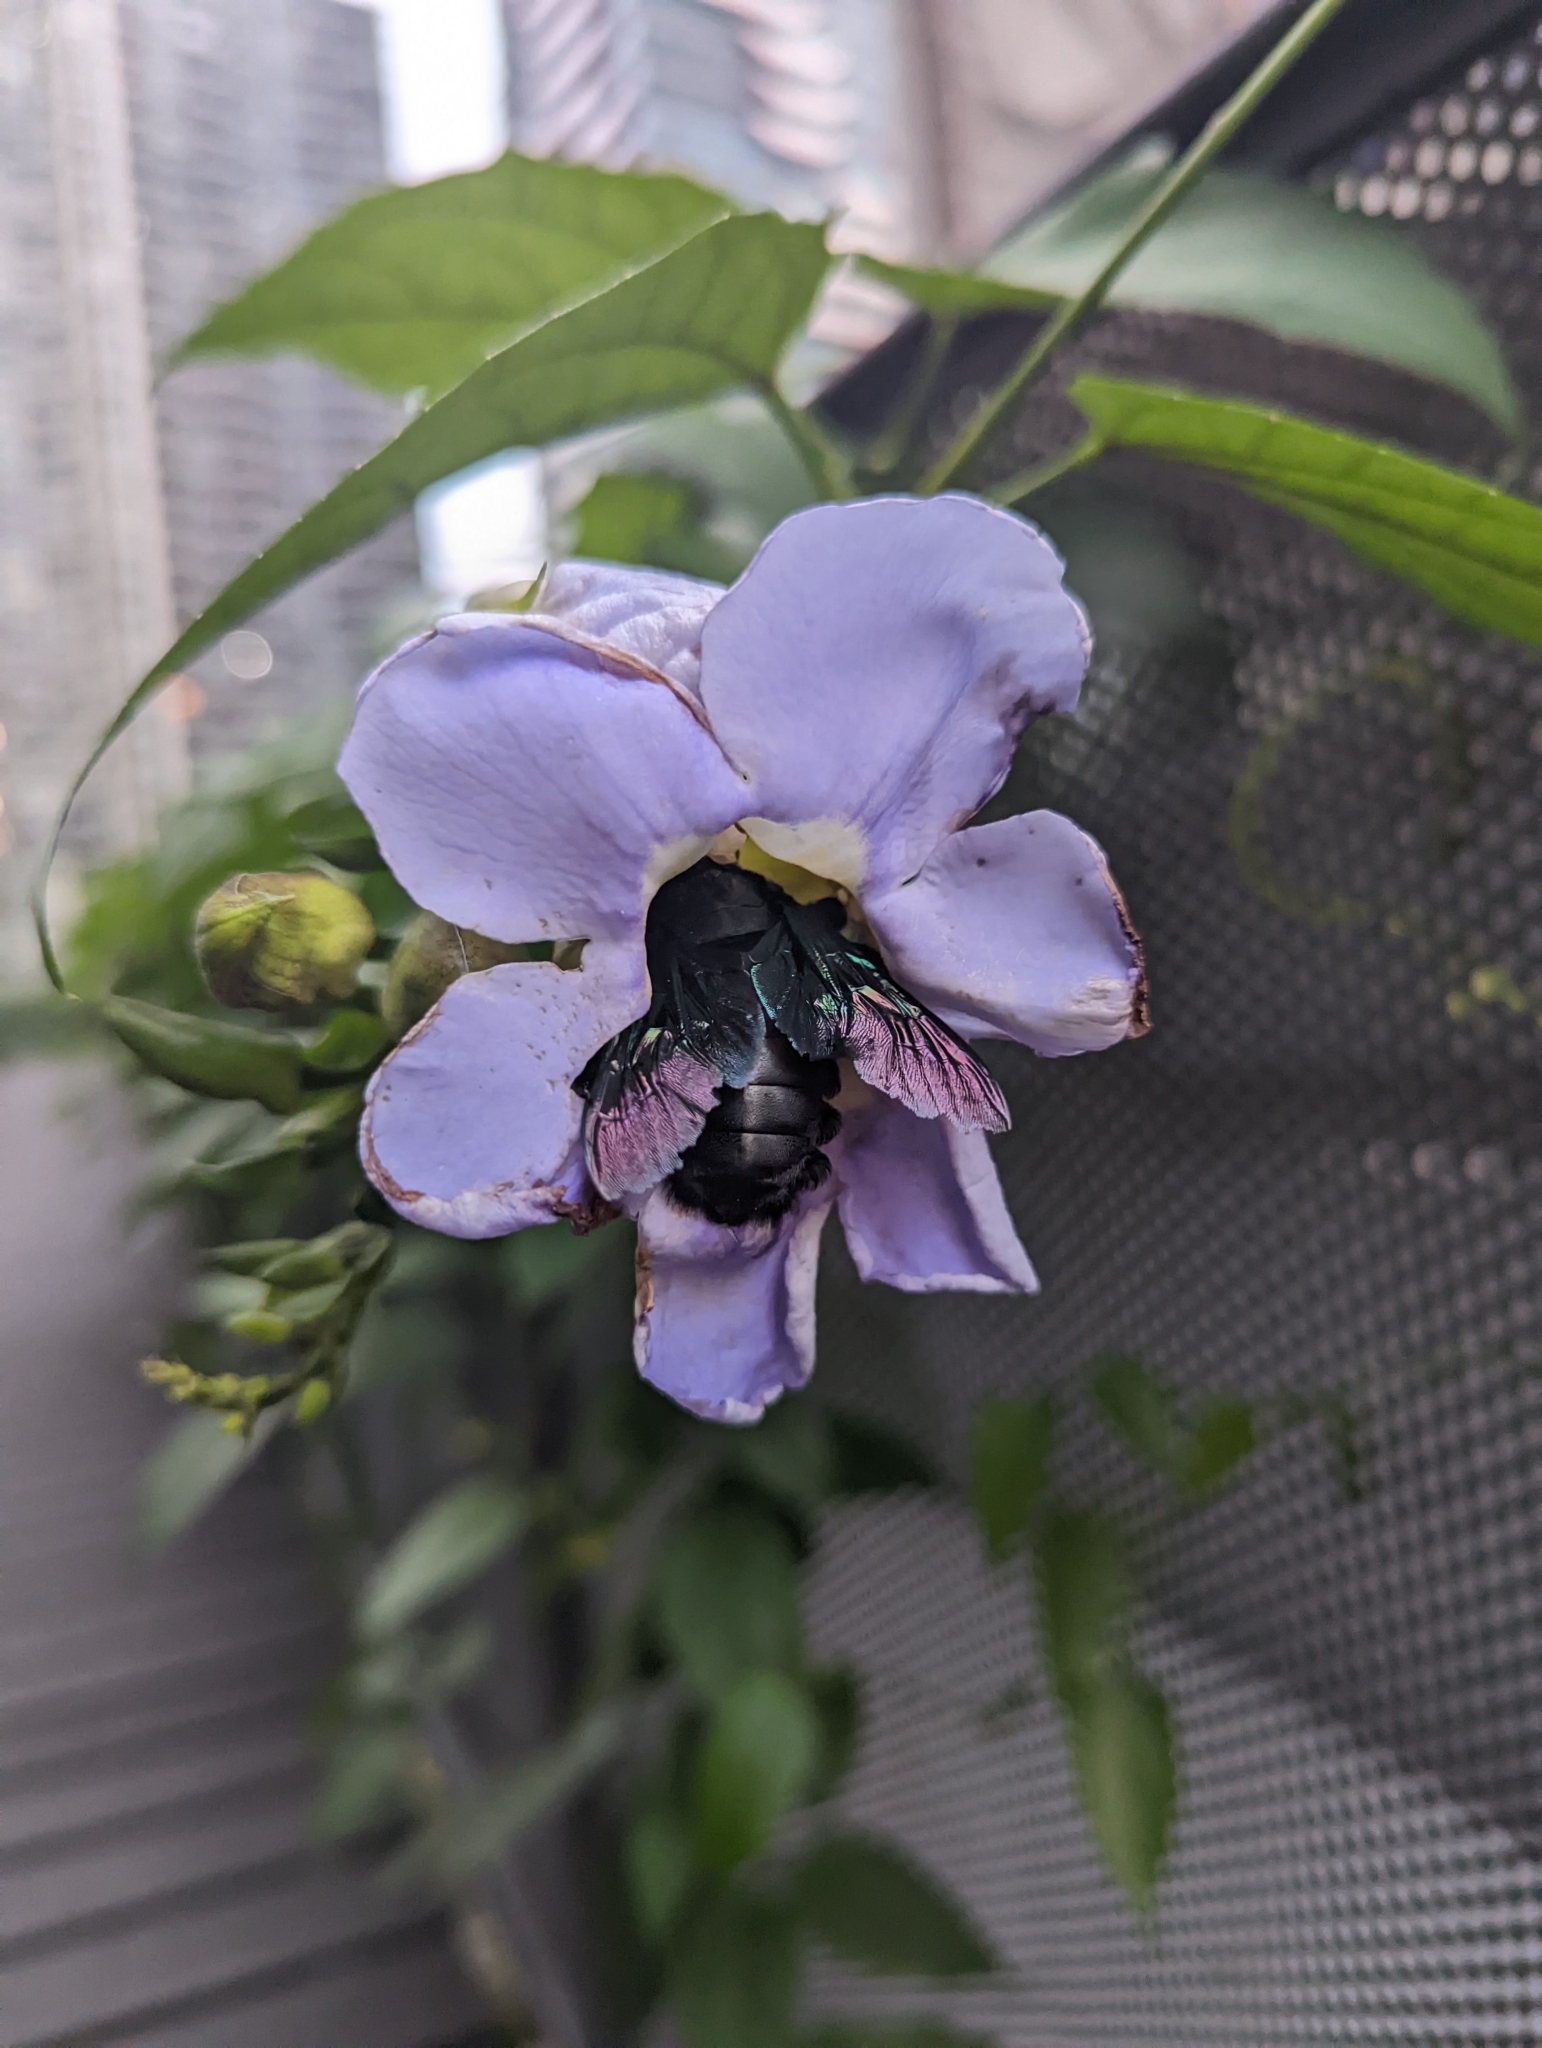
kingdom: Animalia
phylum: Arthropoda
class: Insecta
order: Hymenoptera
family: Apidae
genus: Xylocopa
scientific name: Xylocopa latipes
